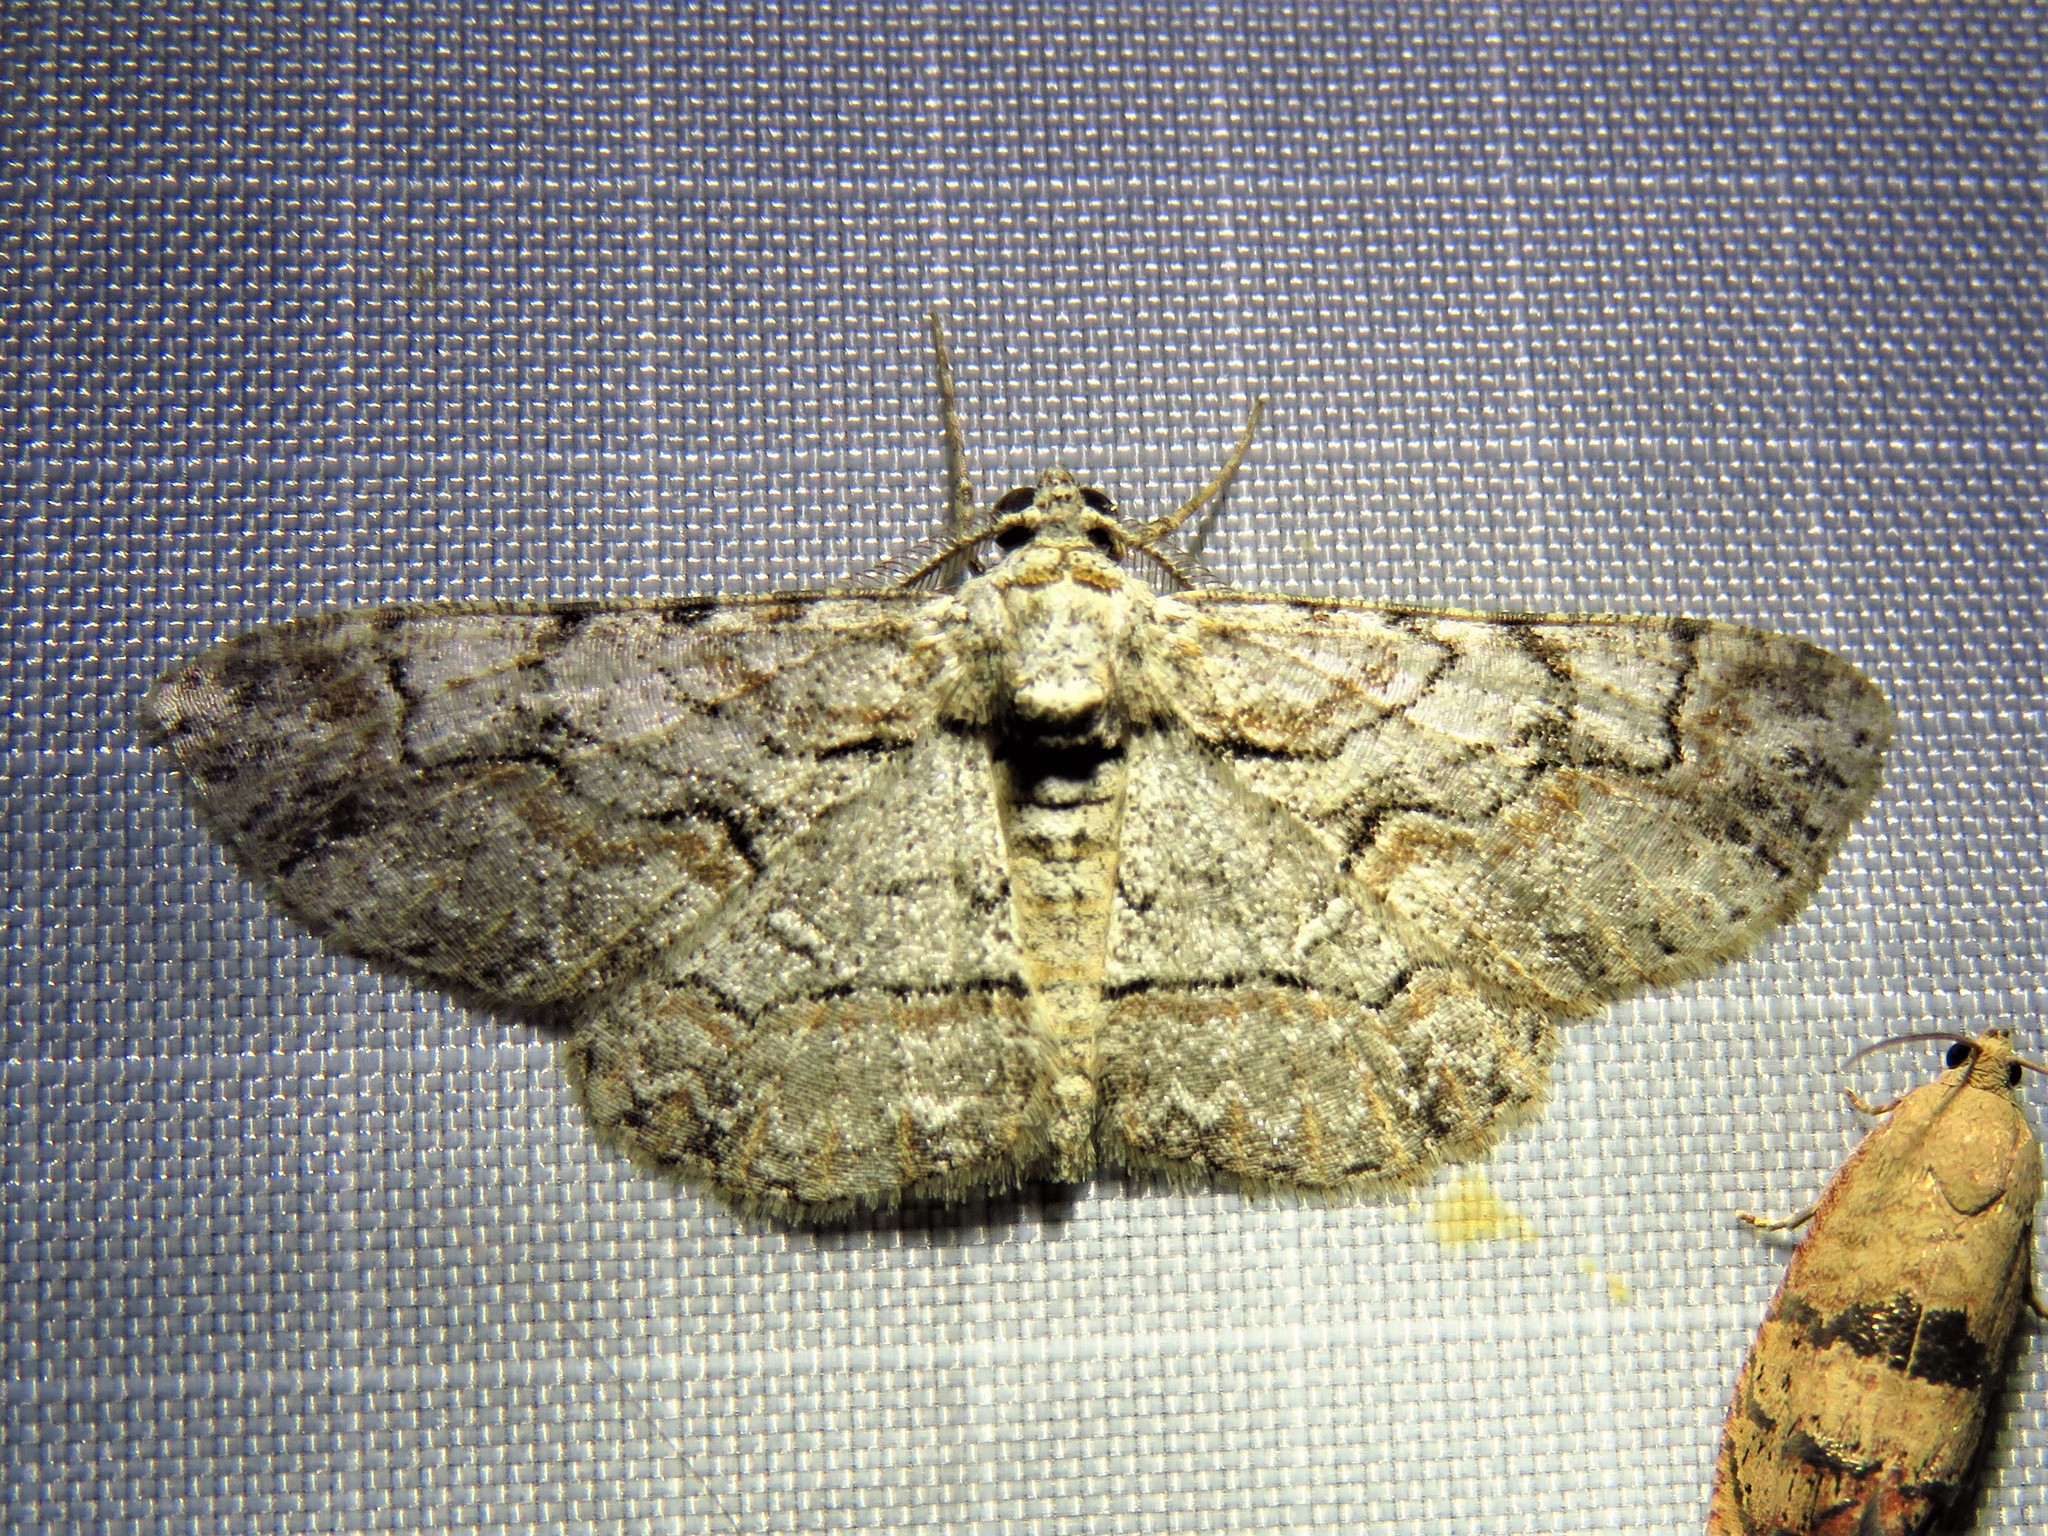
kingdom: Animalia
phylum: Arthropoda
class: Insecta
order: Lepidoptera
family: Geometridae
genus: Iridopsis
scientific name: Iridopsis defectaria
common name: Brown-shaded gray
